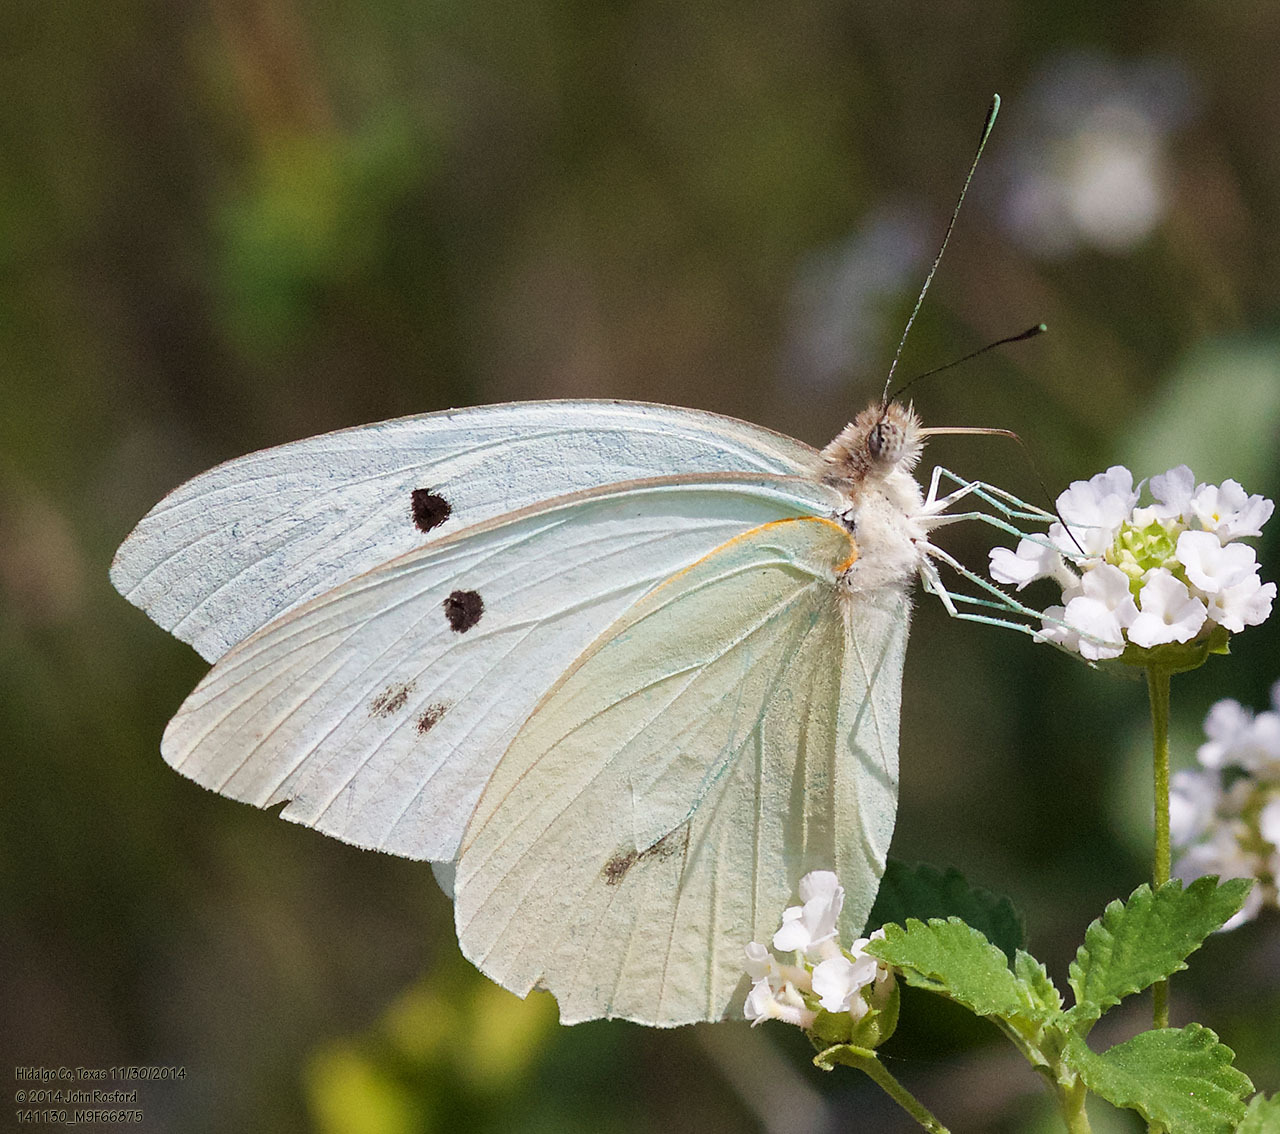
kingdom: Animalia
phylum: Arthropoda
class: Insecta
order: Lepidoptera
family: Pieridae
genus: Ganyra
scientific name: Ganyra josephina
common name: Giant white
